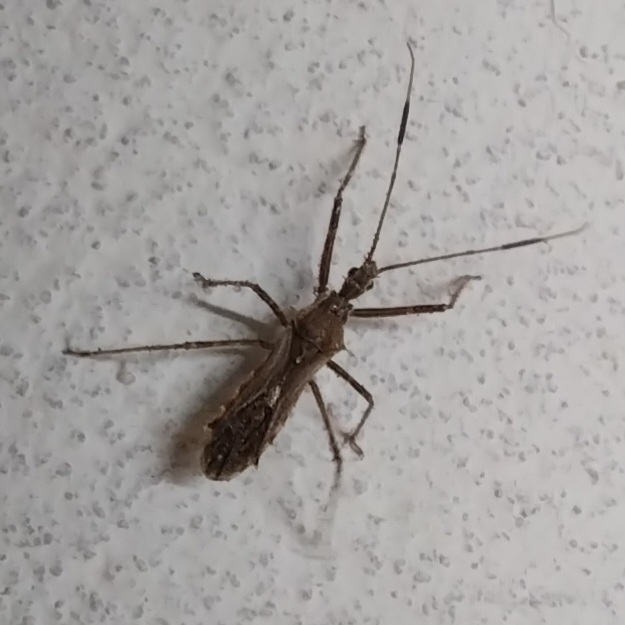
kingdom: Animalia
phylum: Arthropoda
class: Insecta
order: Hemiptera
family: Reduviidae
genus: Atrachelus
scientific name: Atrachelus cinereus
